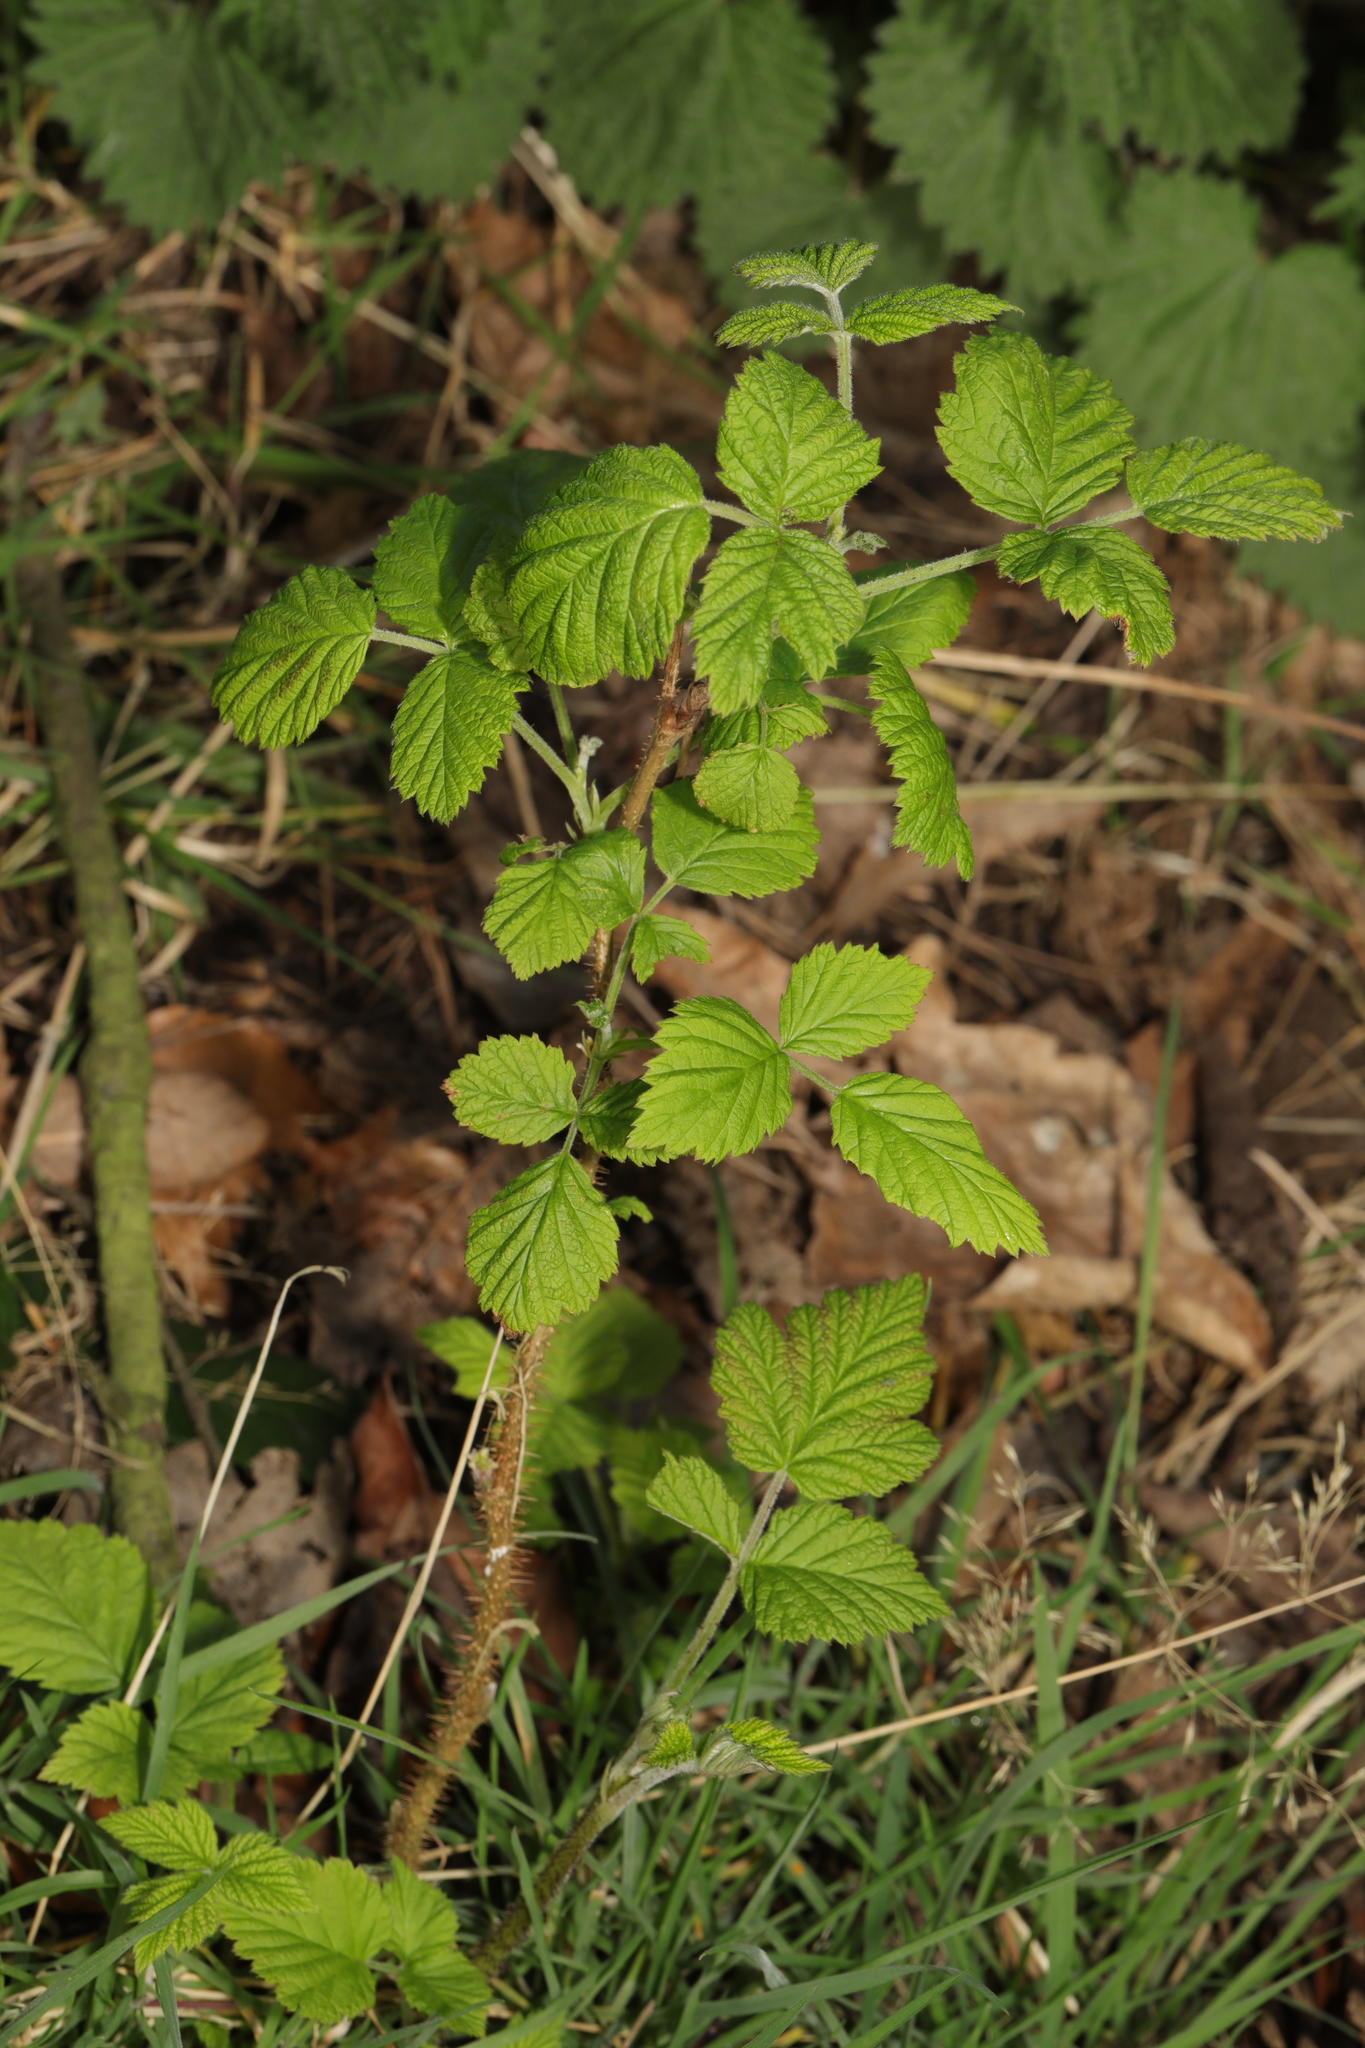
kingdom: Plantae
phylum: Tracheophyta
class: Magnoliopsida
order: Rosales
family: Rosaceae
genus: Rubus
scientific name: Rubus idaeus
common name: Raspberry
